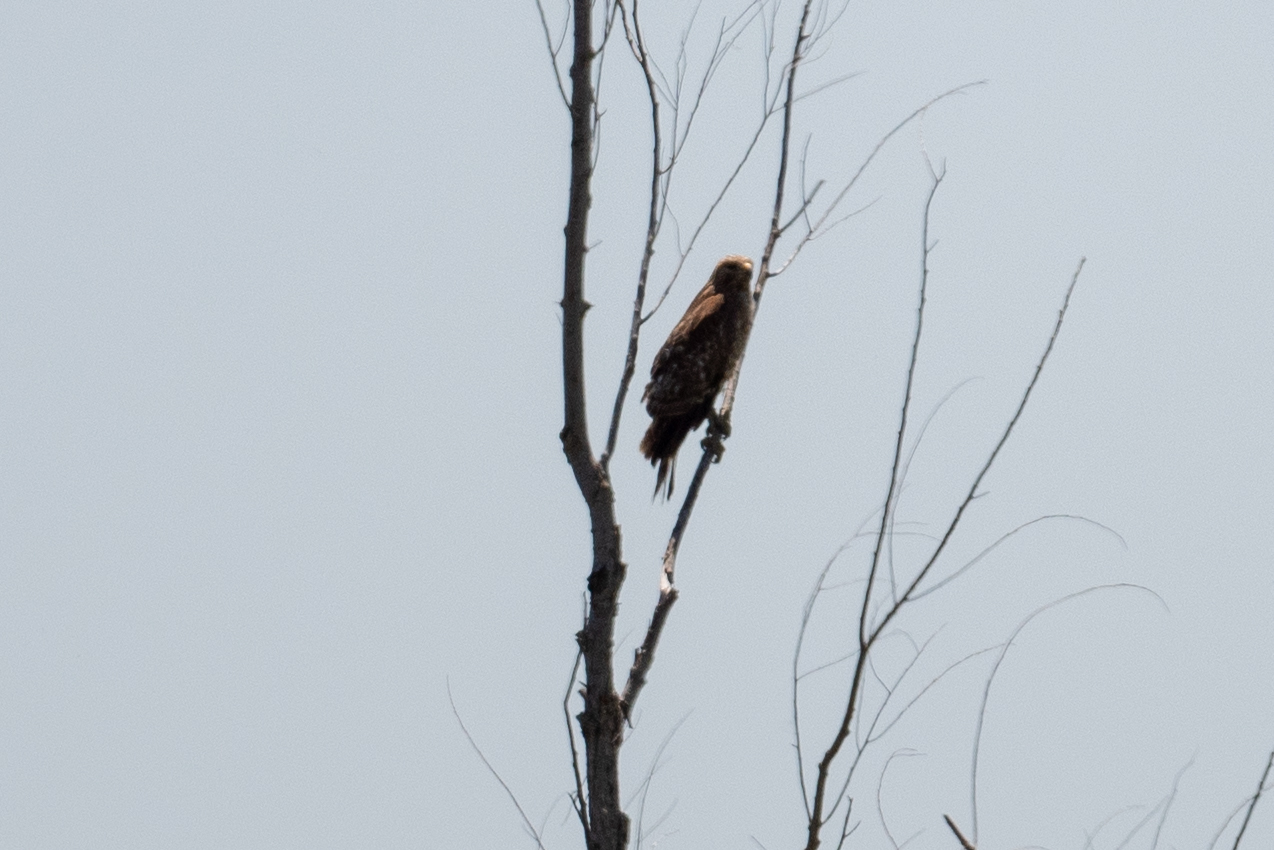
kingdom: Animalia
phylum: Chordata
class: Aves
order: Accipitriformes
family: Accipitridae
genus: Buteo
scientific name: Buteo lineatus
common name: Red-shouldered hawk
